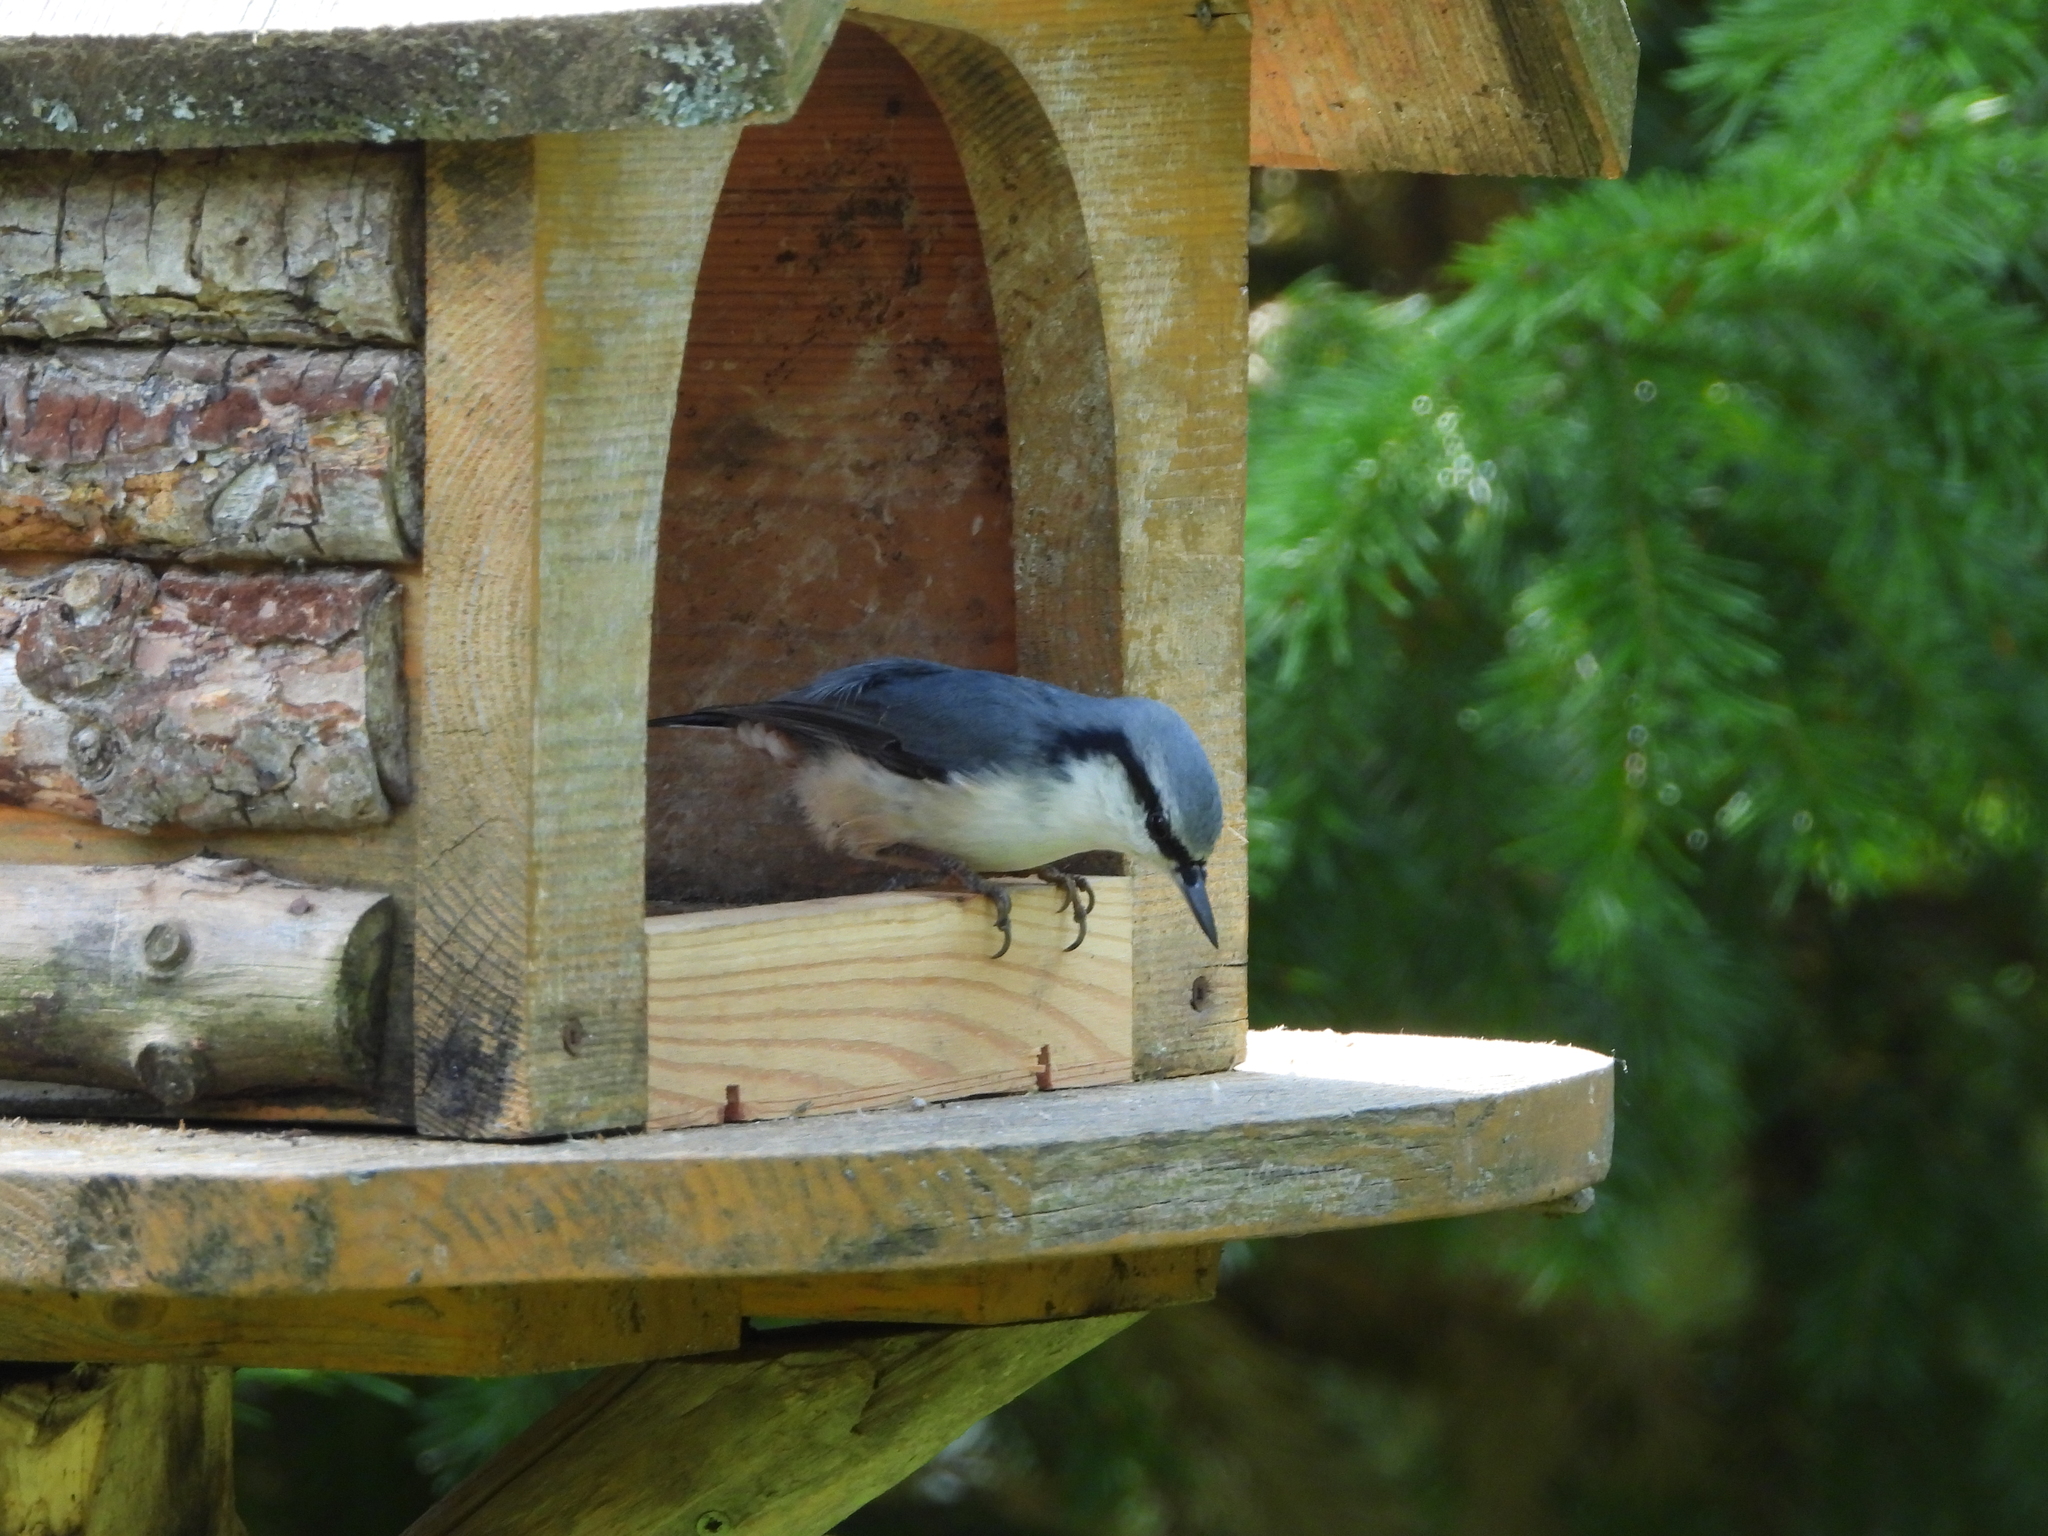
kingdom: Animalia
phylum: Chordata
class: Aves
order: Passeriformes
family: Sittidae
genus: Sitta
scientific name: Sitta europaea
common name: Eurasian nuthatch
